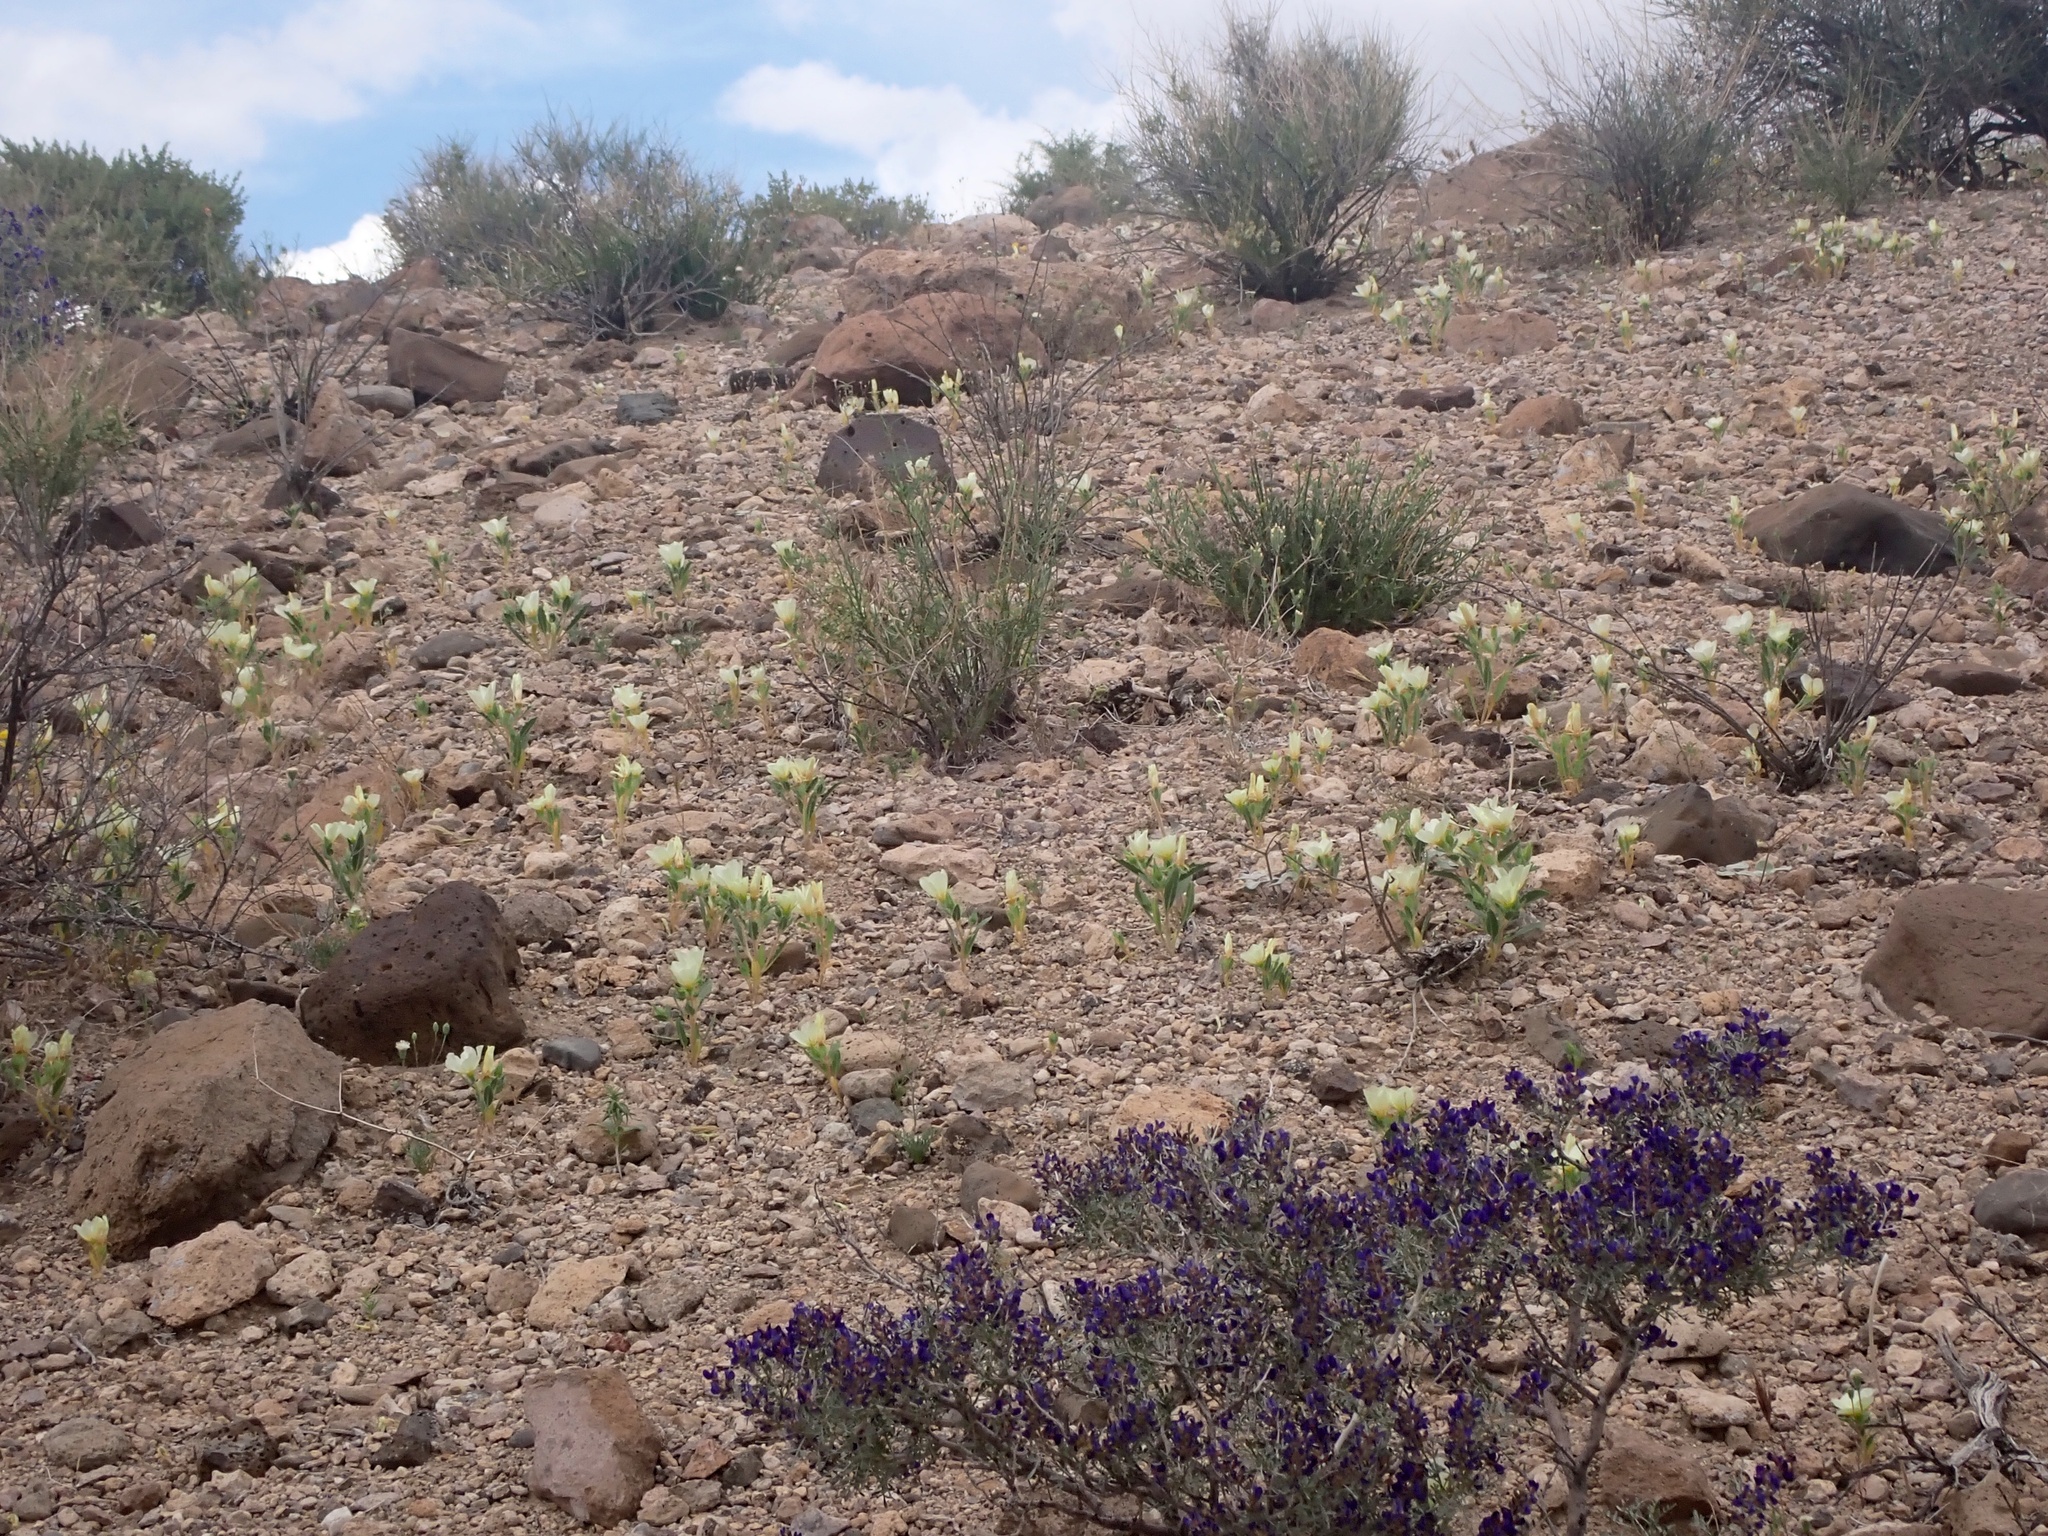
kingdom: Plantae
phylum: Tracheophyta
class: Magnoliopsida
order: Cornales
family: Loasaceae
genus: Mentzelia
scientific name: Mentzelia tricuspis
